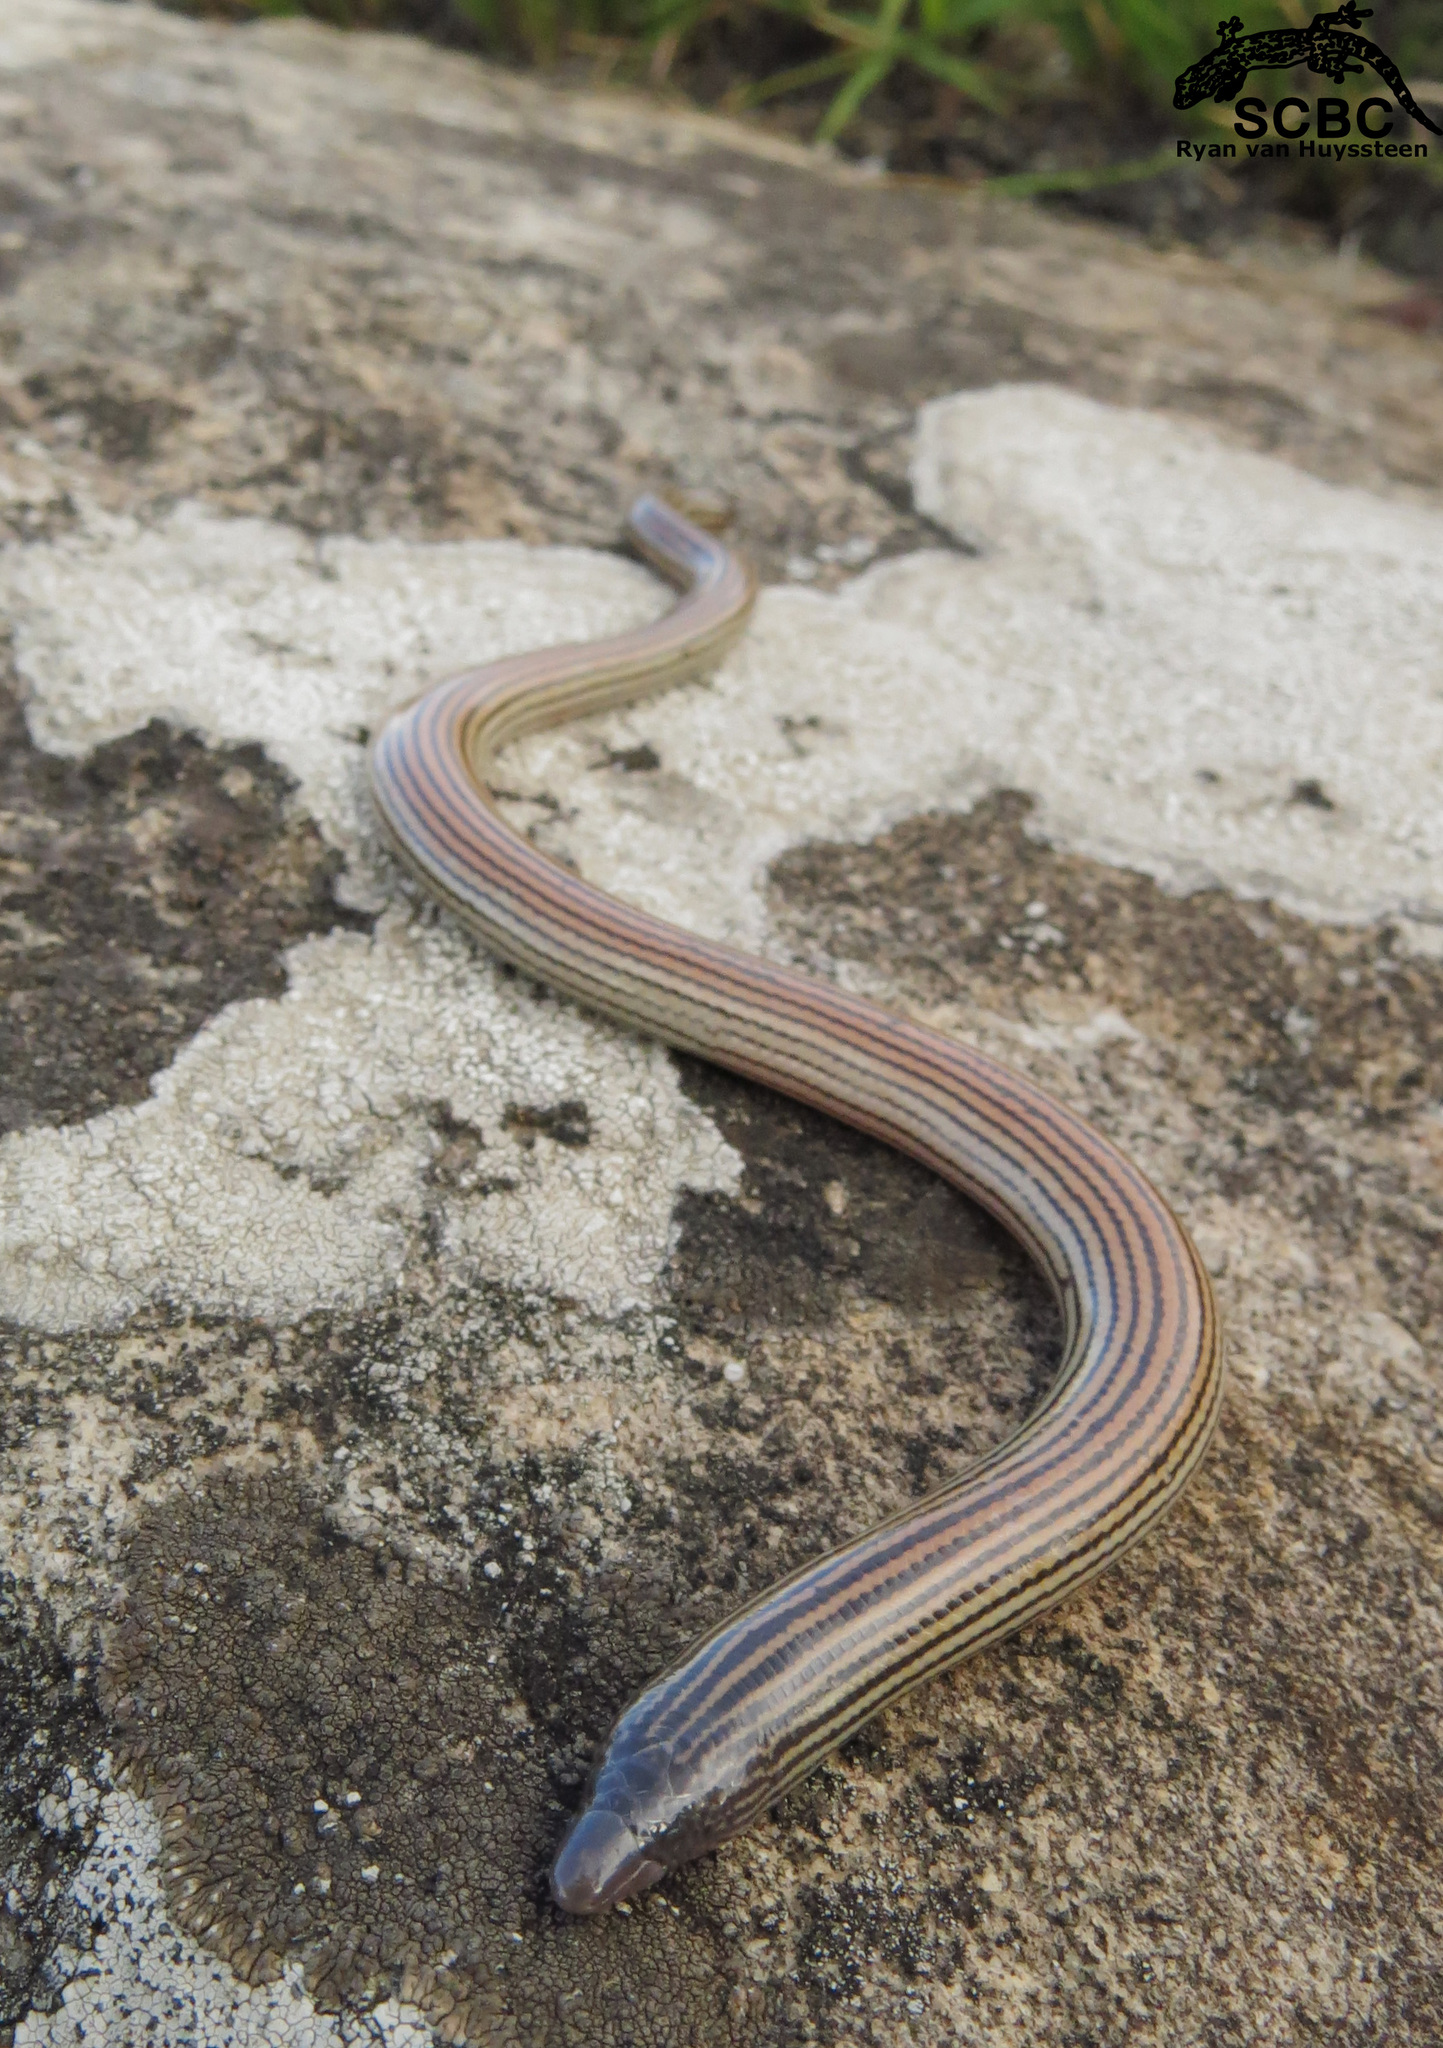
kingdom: Animalia
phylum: Chordata
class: Squamata
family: Scincidae
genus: Acontias
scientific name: Acontias rieppeli
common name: Woodbush legless skink
